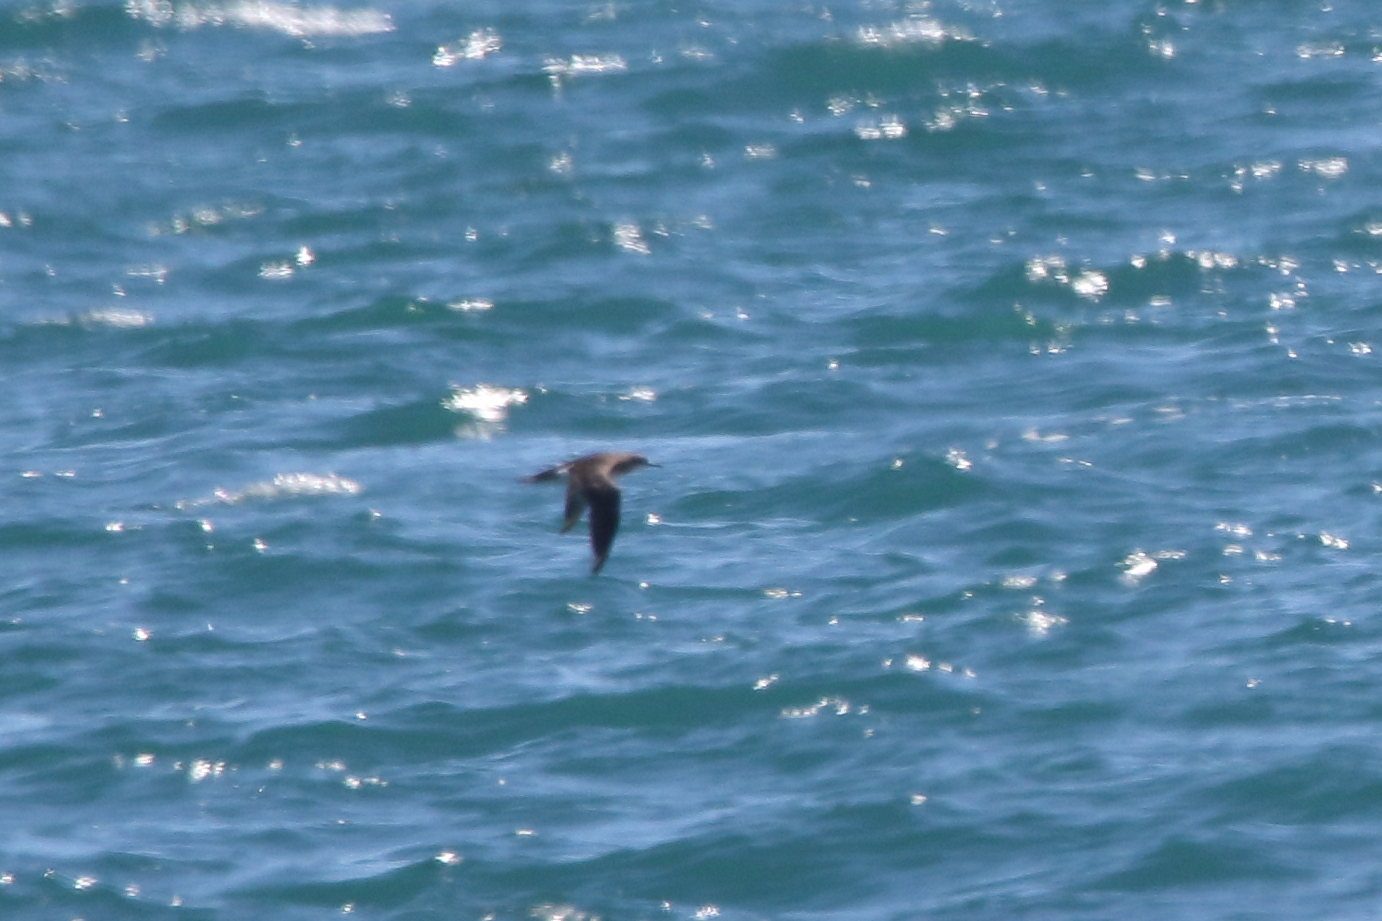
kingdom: Animalia
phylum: Chordata
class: Aves
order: Procellariiformes
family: Procellariidae
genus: Puffinus
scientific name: Puffinus gavia
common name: Fluttering shearwater
